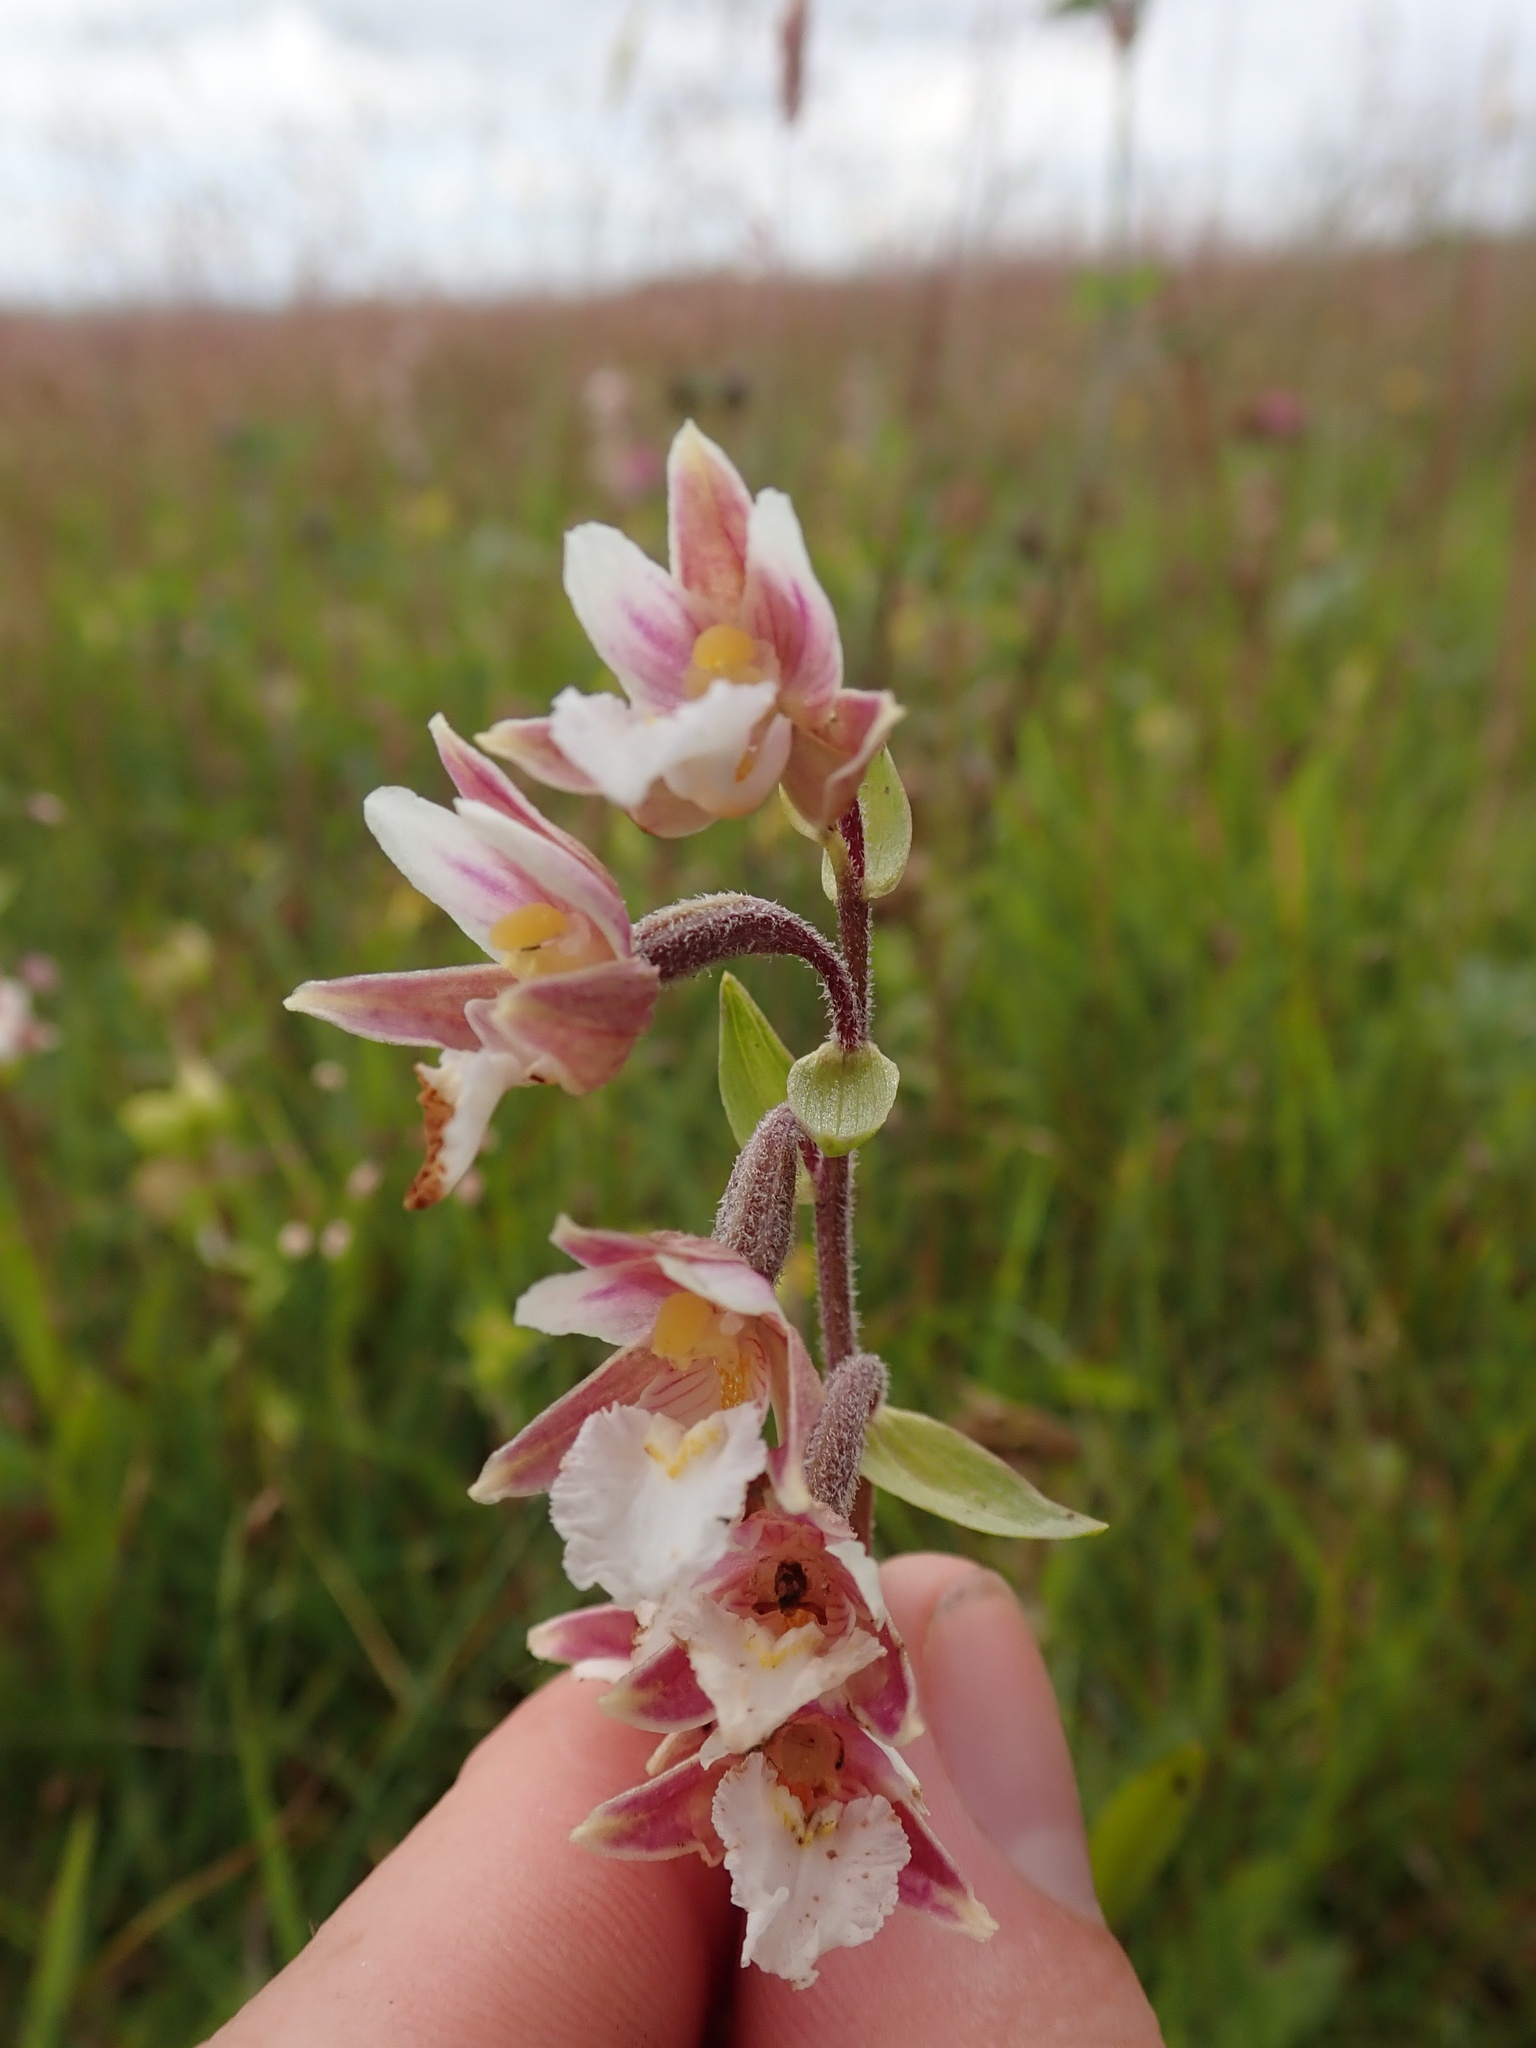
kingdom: Plantae
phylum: Tracheophyta
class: Liliopsida
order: Asparagales
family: Orchidaceae
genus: Epipactis
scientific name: Epipactis palustris
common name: Marsh helleborine
